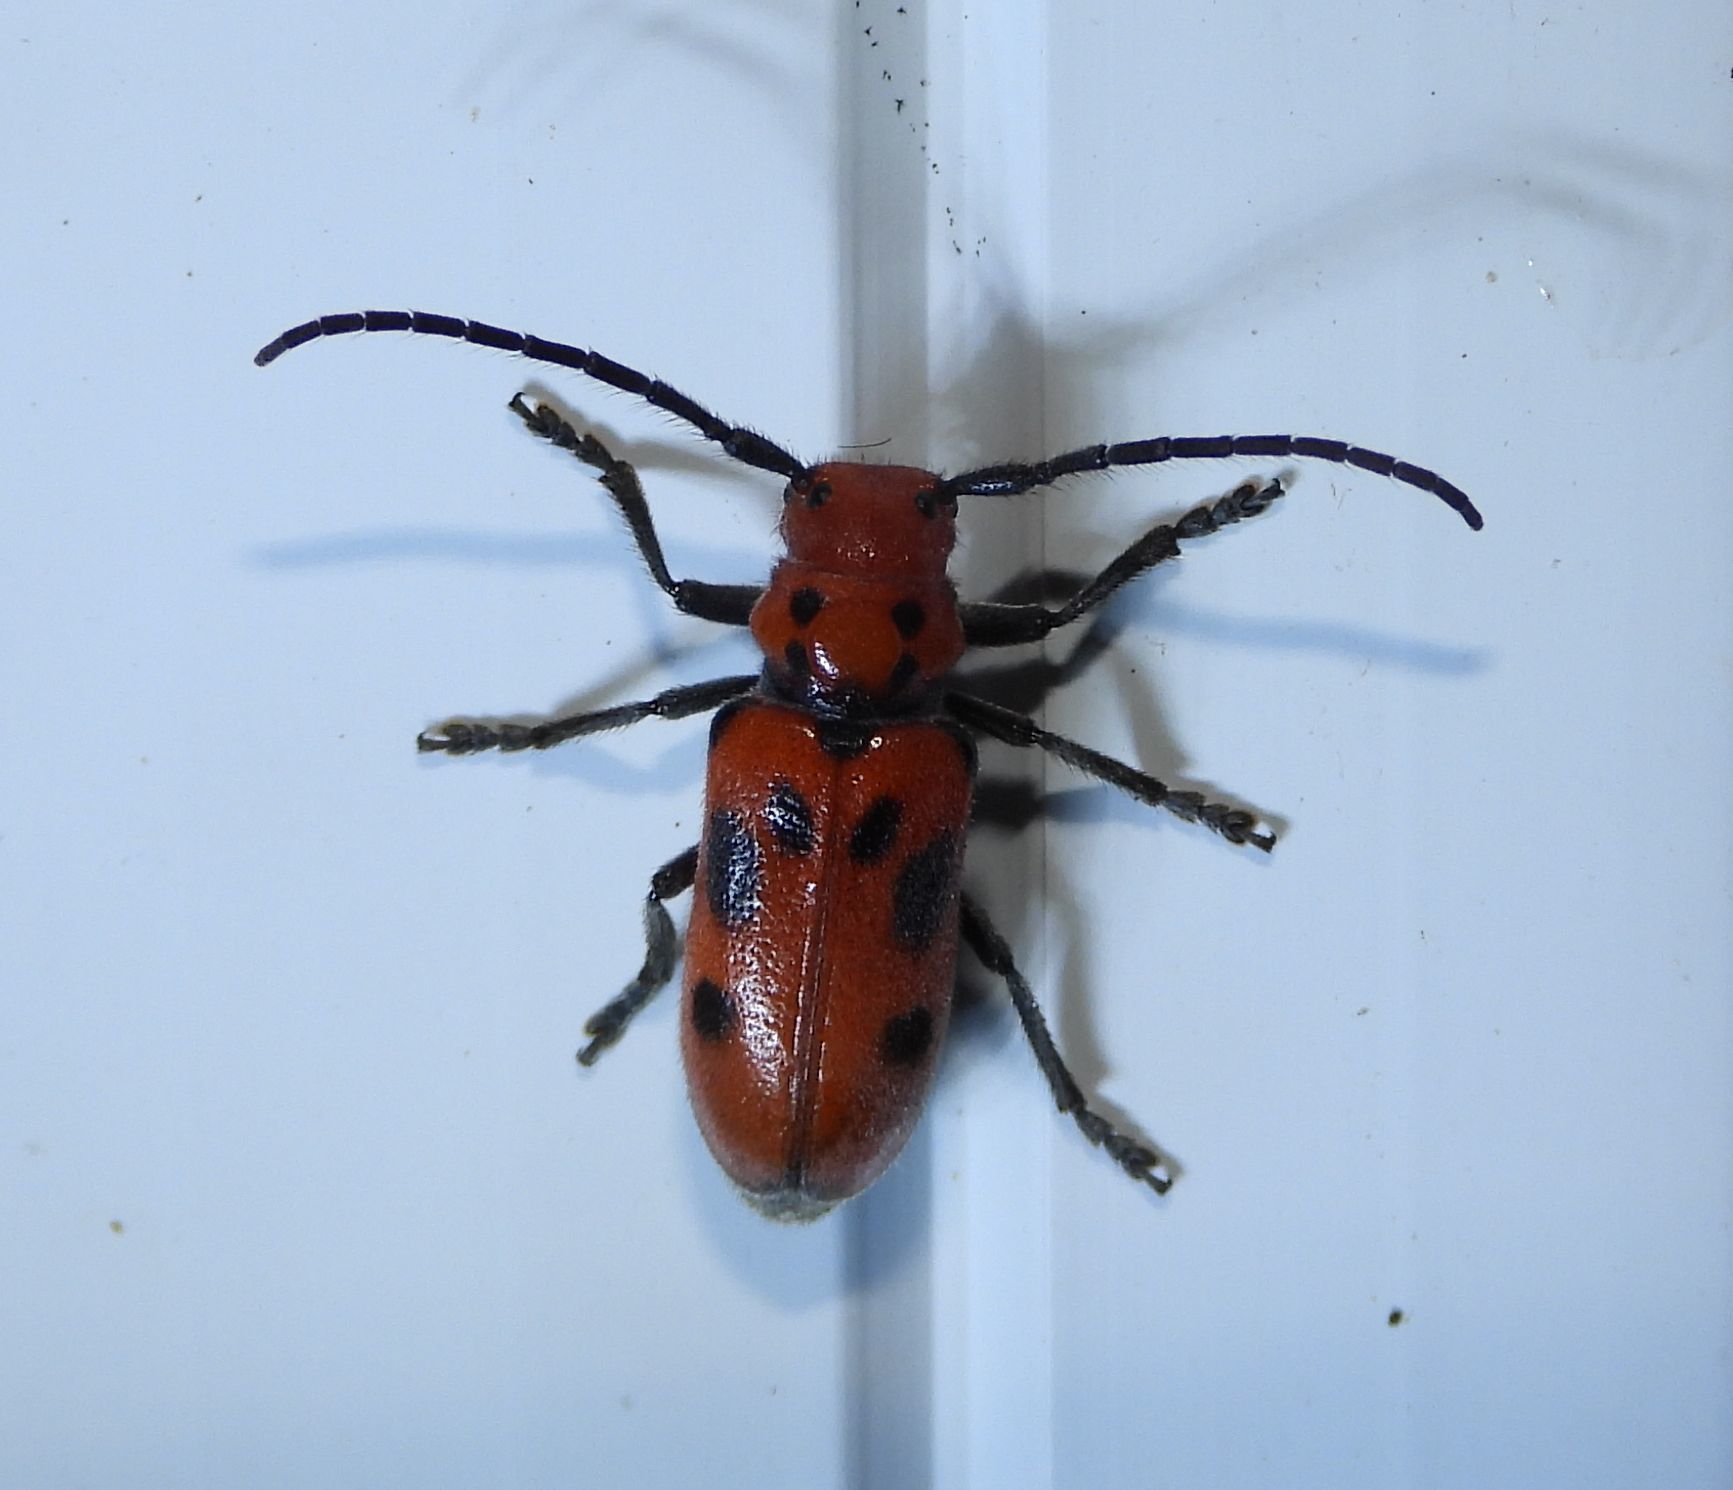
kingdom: Animalia
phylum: Arthropoda
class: Insecta
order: Coleoptera
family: Cerambycidae
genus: Tetraopes
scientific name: Tetraopes tetrophthalmus
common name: Red milkweed beetle
